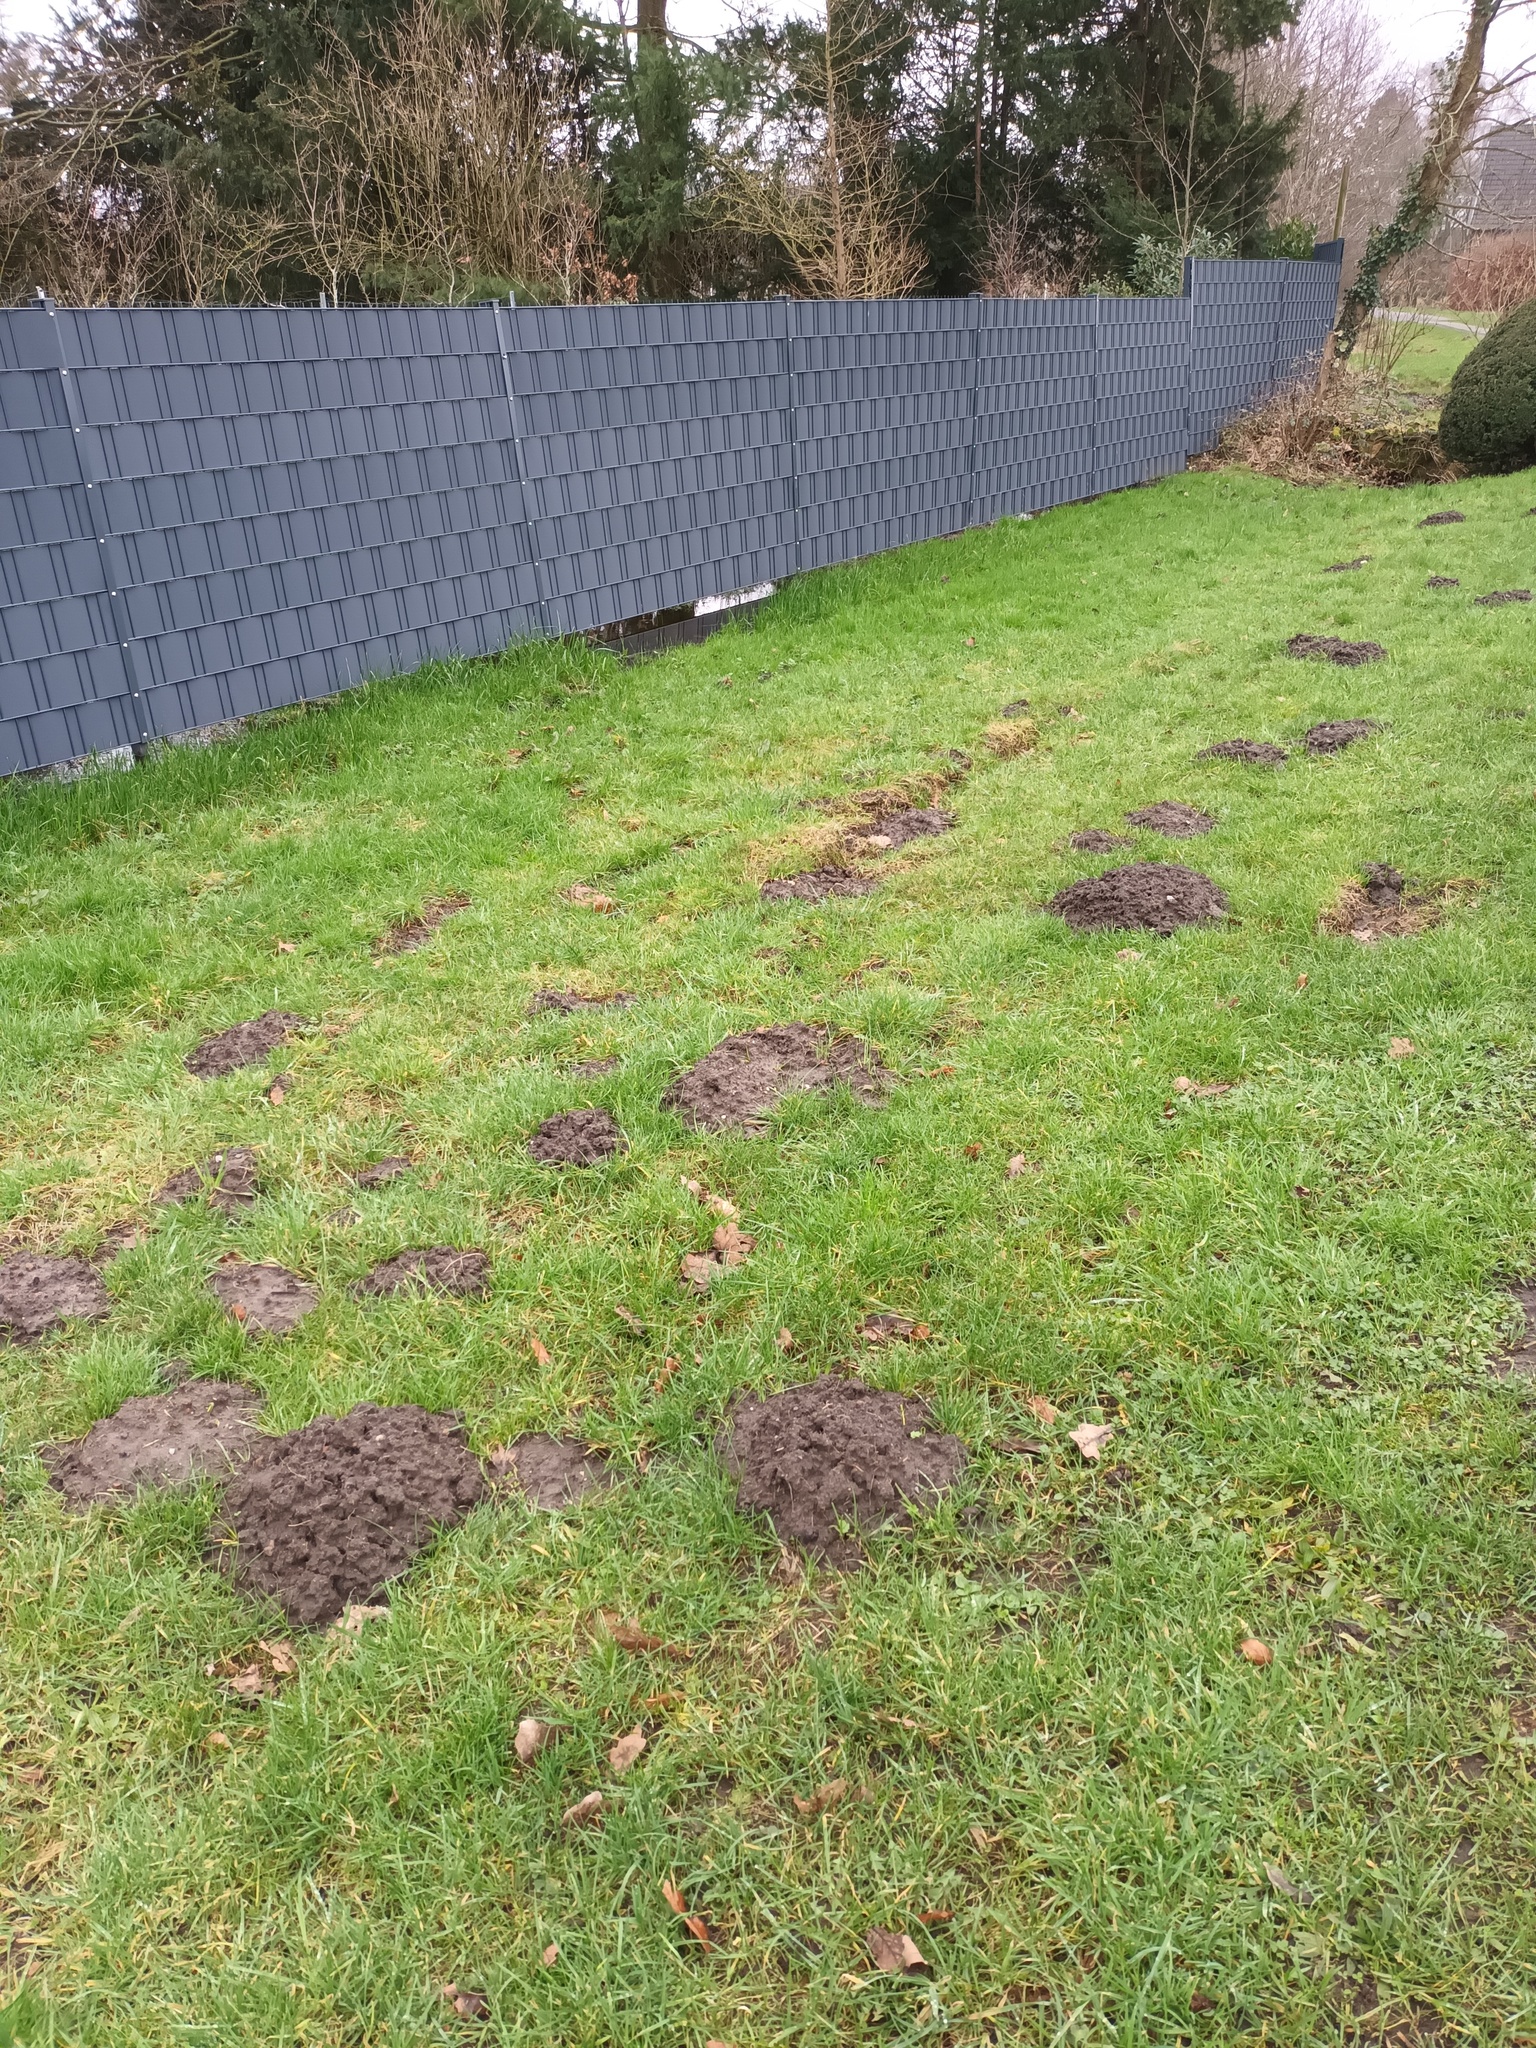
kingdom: Animalia
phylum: Chordata
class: Mammalia
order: Soricomorpha
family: Talpidae
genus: Talpa
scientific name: Talpa europaea
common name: European mole
